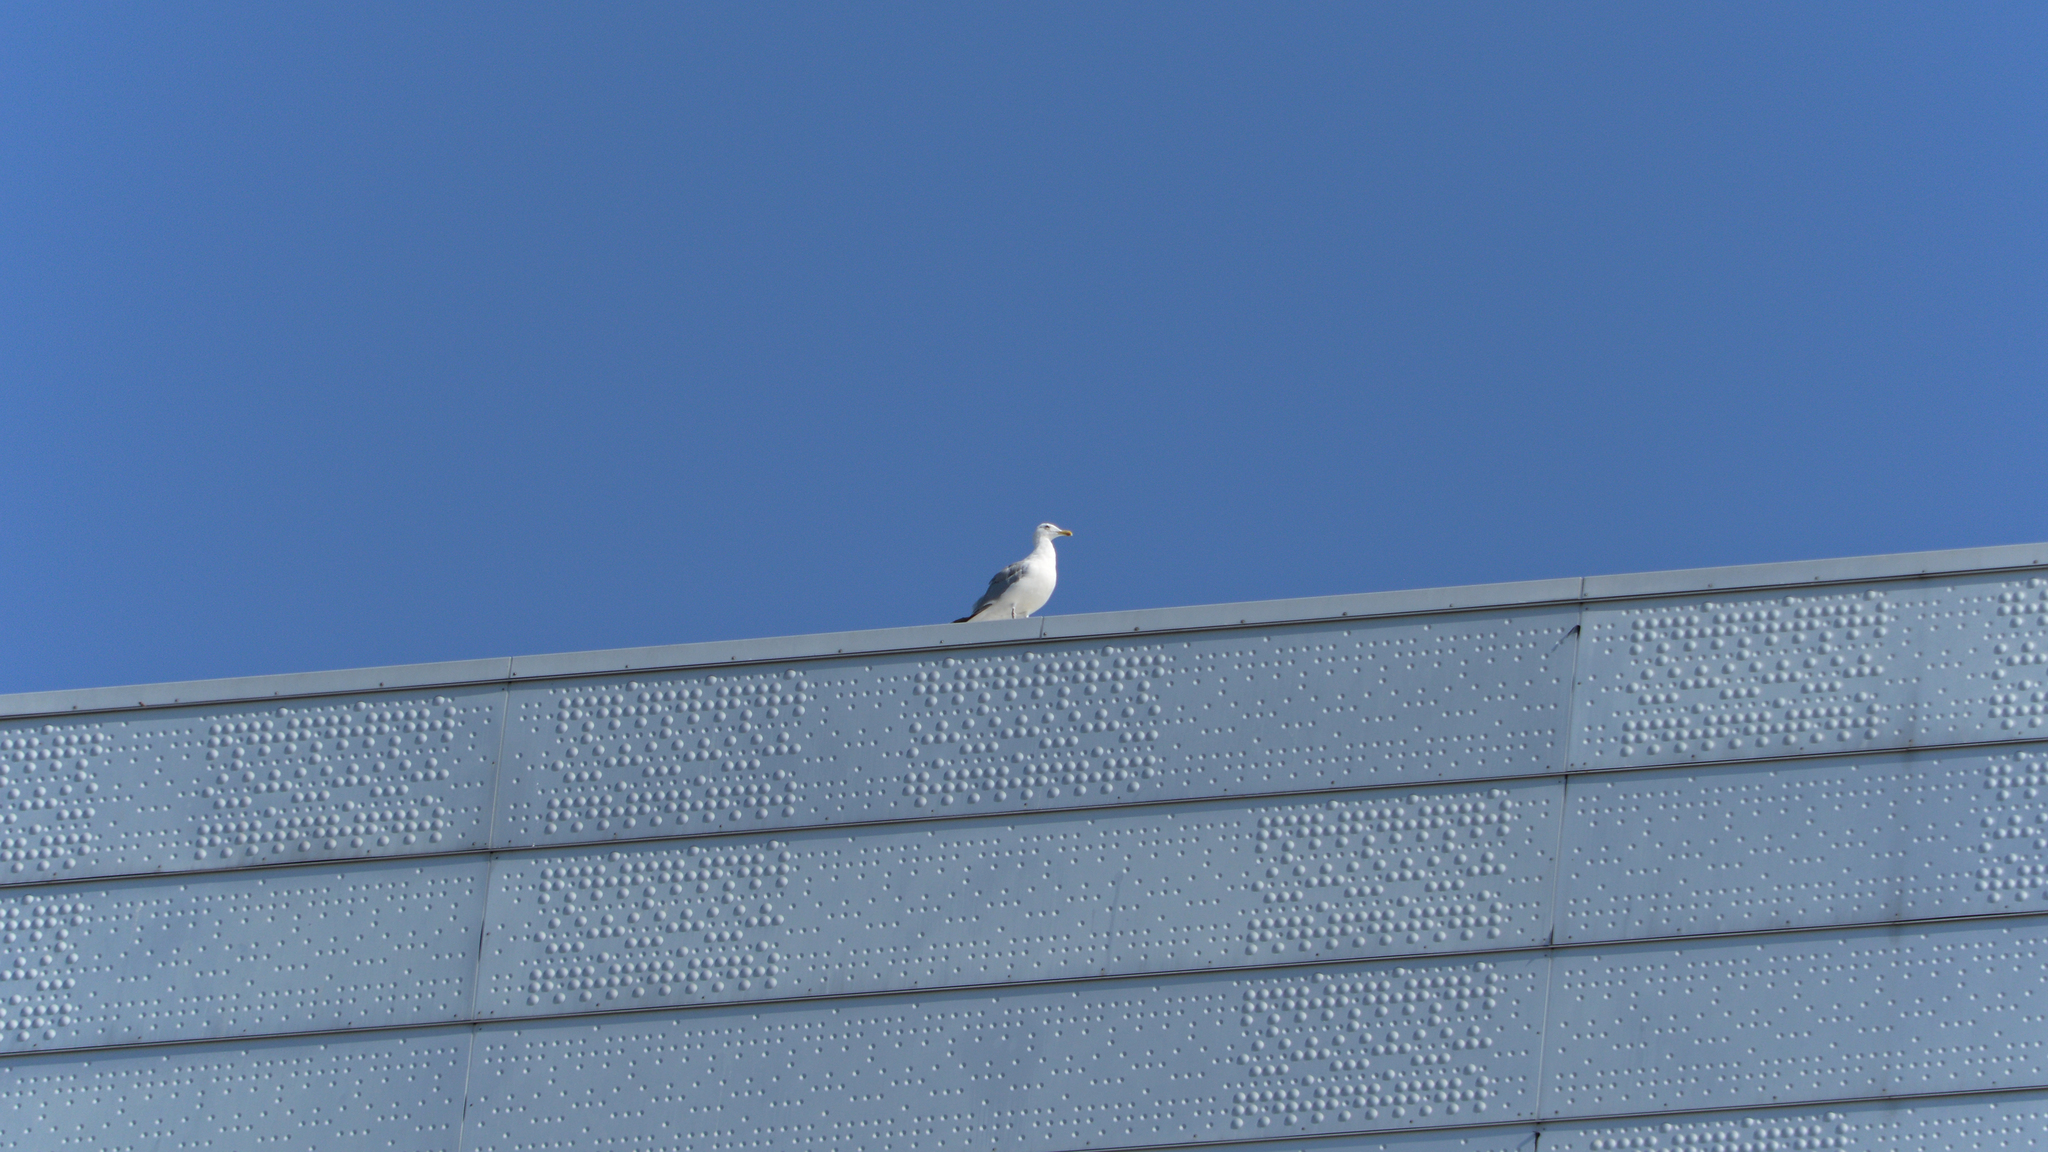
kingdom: Animalia
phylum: Chordata
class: Aves
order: Charadriiformes
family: Laridae
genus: Larus
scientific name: Larus argentatus
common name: Herring gull
